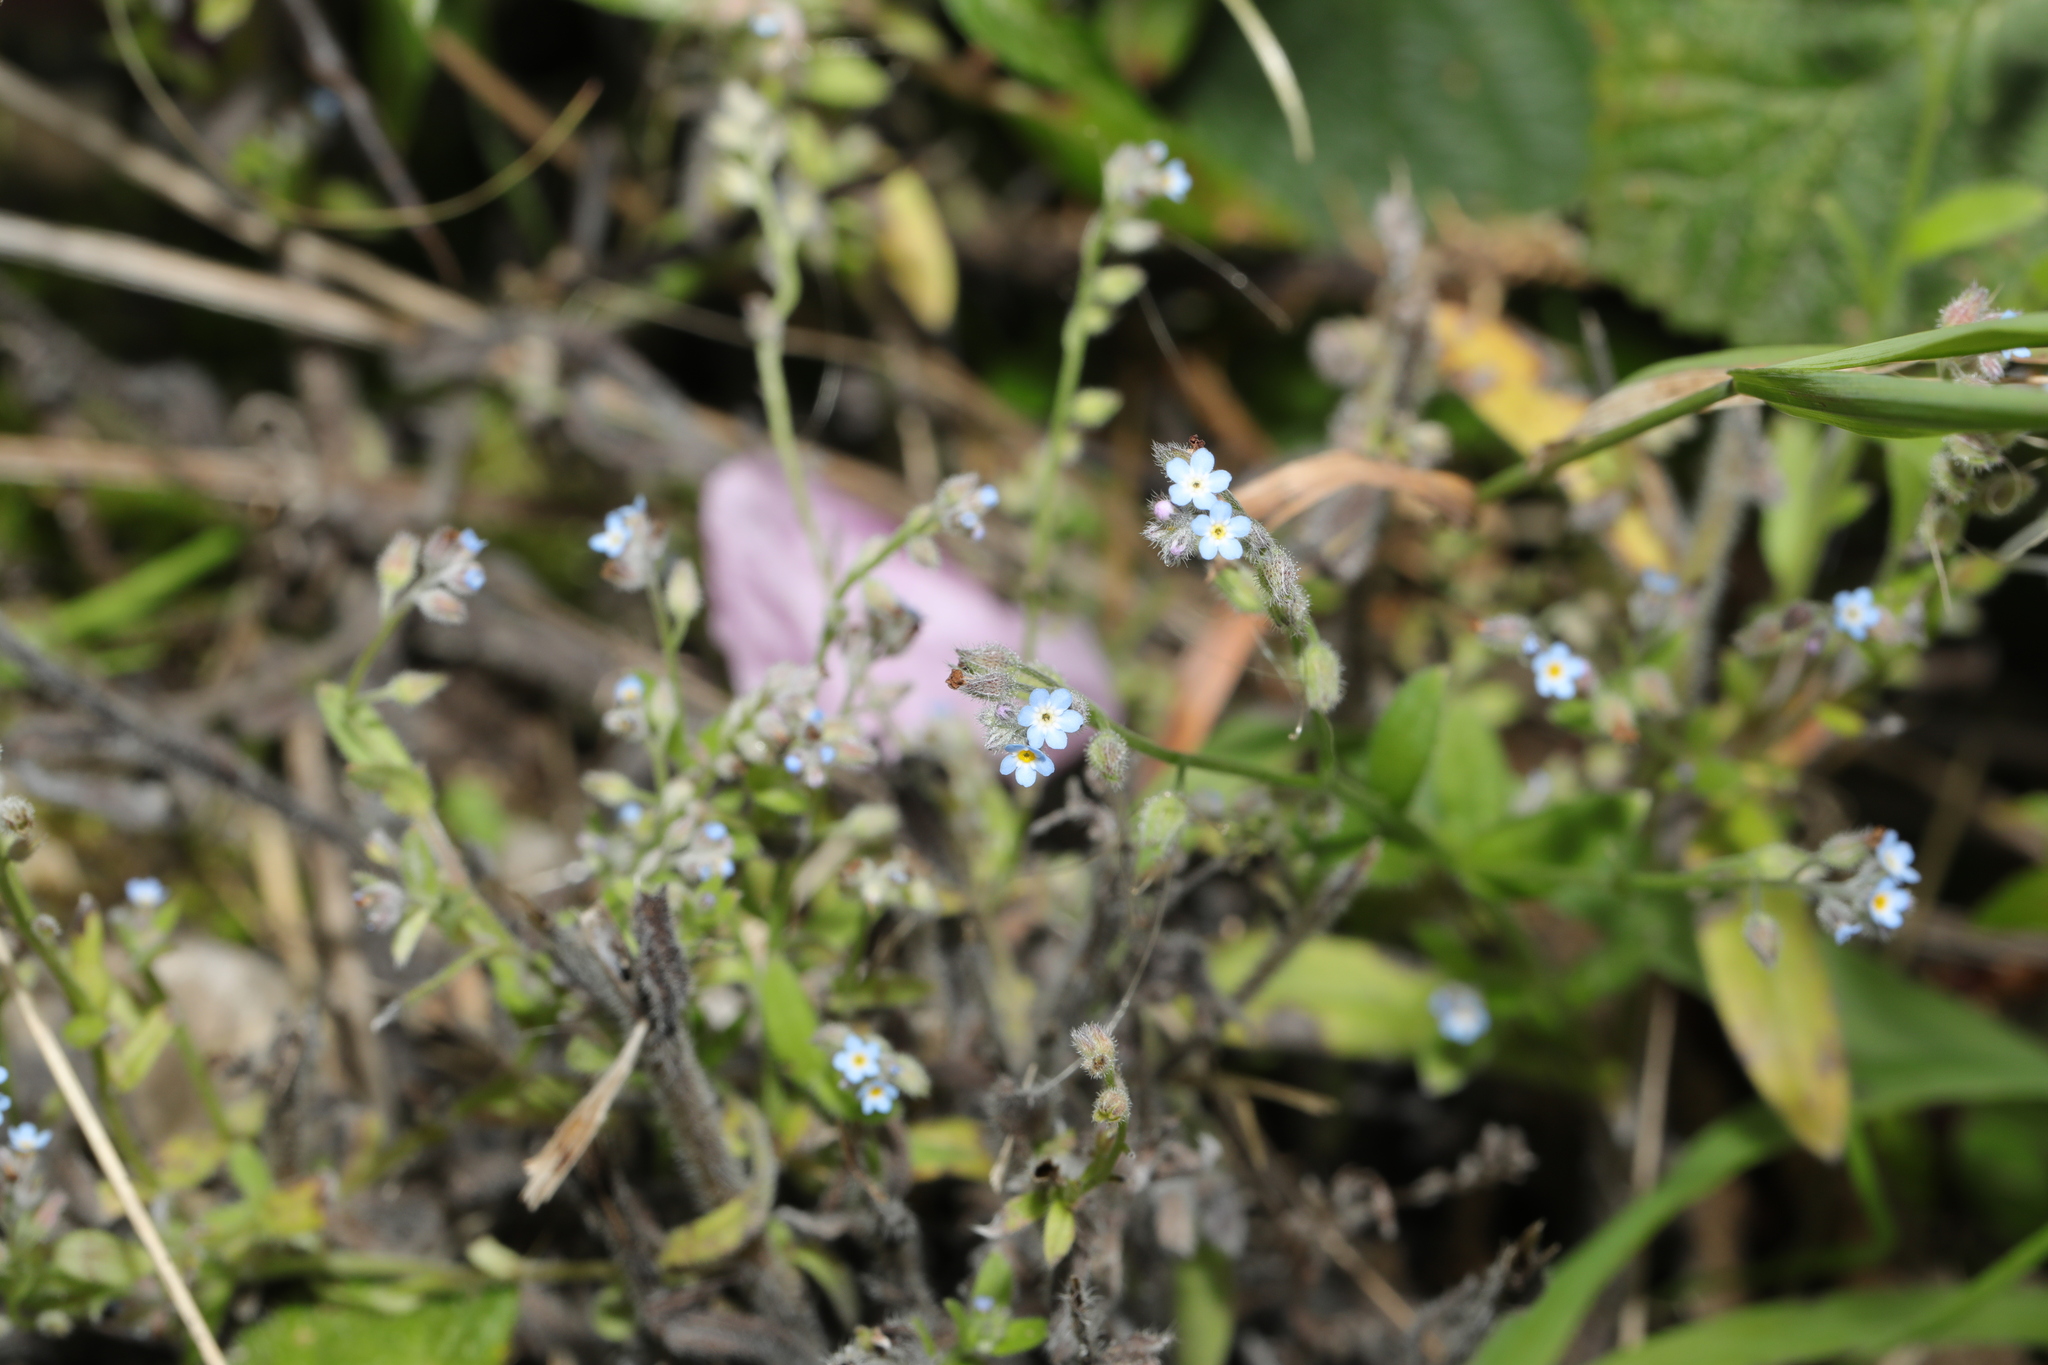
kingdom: Plantae
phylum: Tracheophyta
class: Magnoliopsida
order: Boraginales
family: Boraginaceae
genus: Myosotis
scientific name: Myosotis arvensis
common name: Field forget-me-not
